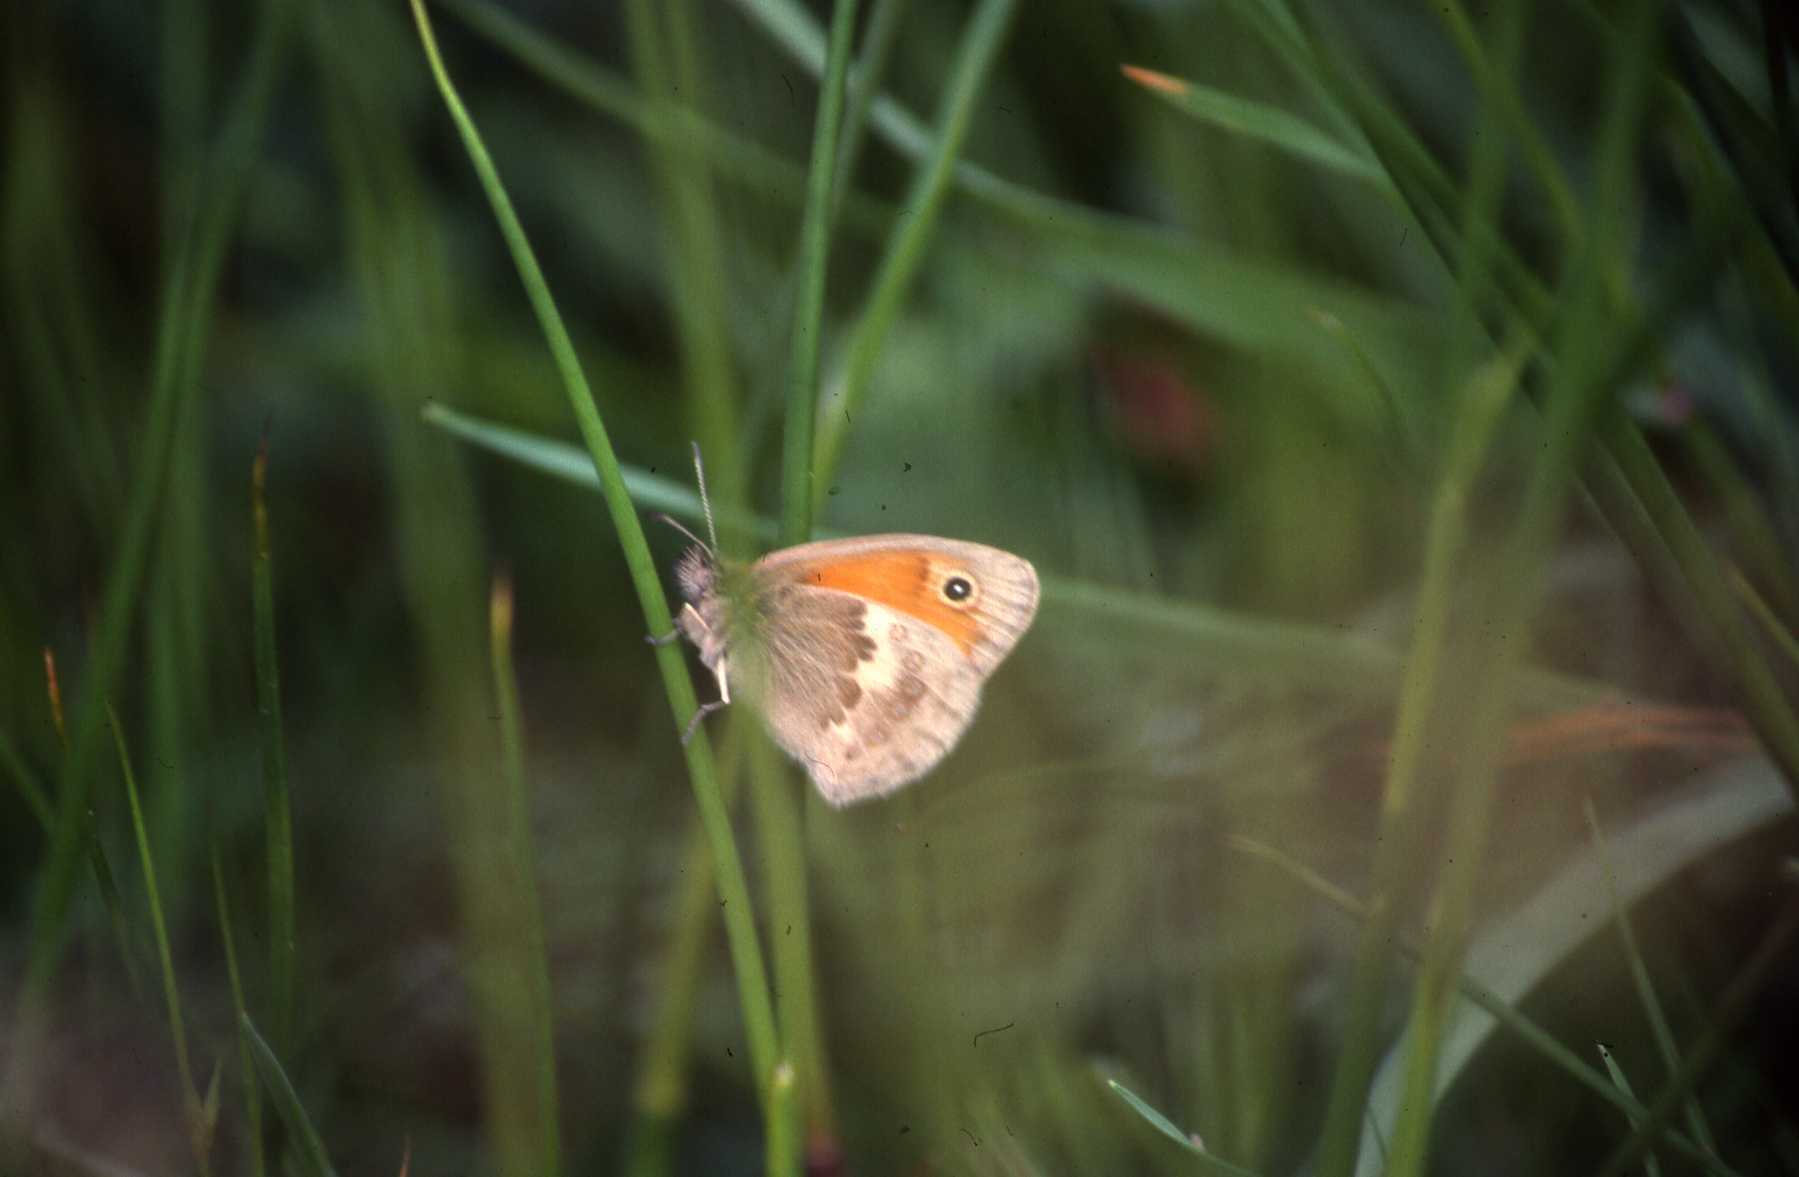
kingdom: Animalia
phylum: Arthropoda
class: Insecta
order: Lepidoptera
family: Nymphalidae
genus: Coenonympha
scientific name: Coenonympha pamphilus
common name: Small heath
